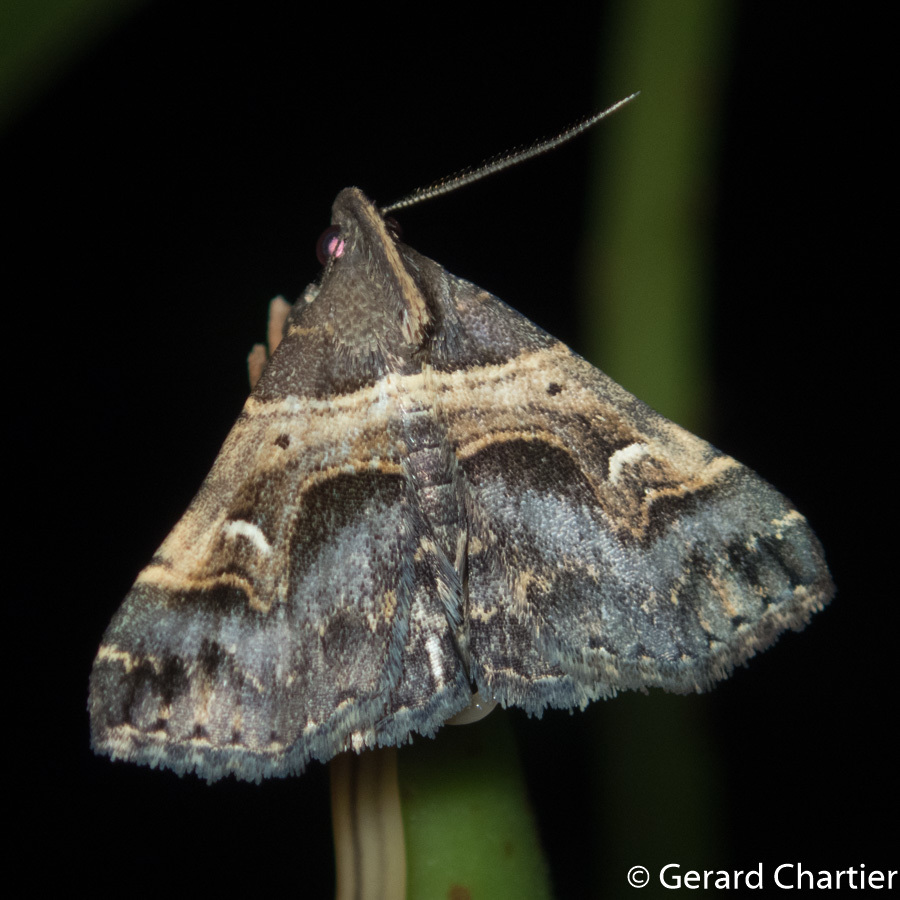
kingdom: Animalia
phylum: Arthropoda
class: Insecta
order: Lepidoptera
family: Erebidae
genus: Bertula
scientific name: Bertula abjudicalis
